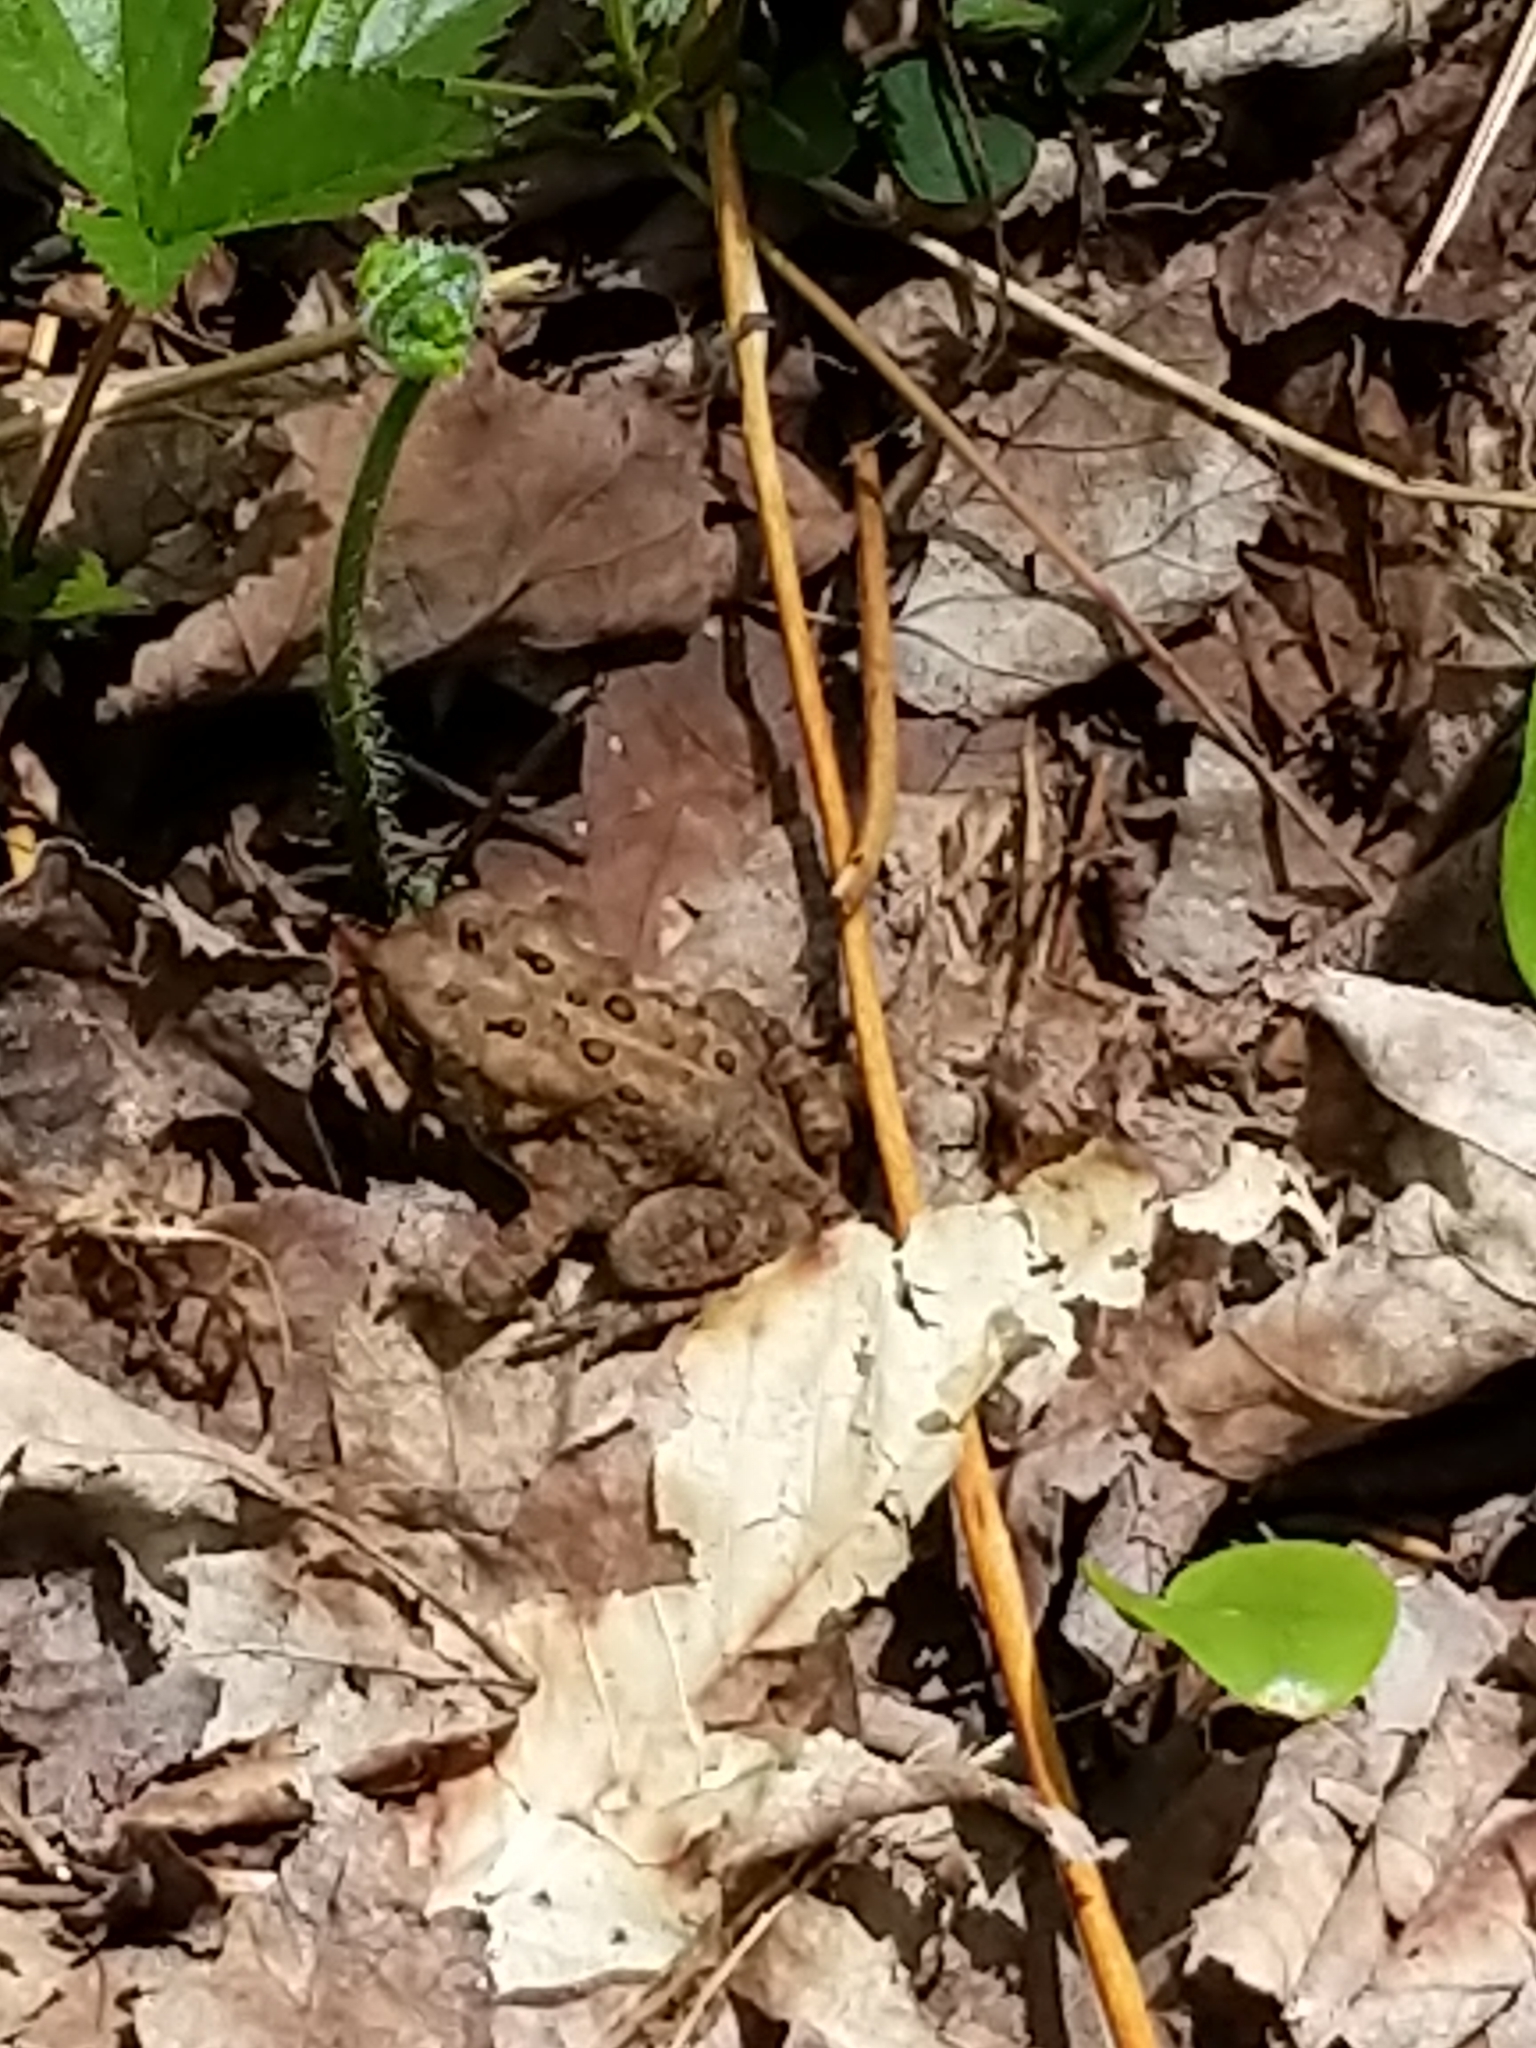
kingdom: Animalia
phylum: Chordata
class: Amphibia
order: Anura
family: Bufonidae
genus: Anaxyrus
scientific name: Anaxyrus americanus
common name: American toad
